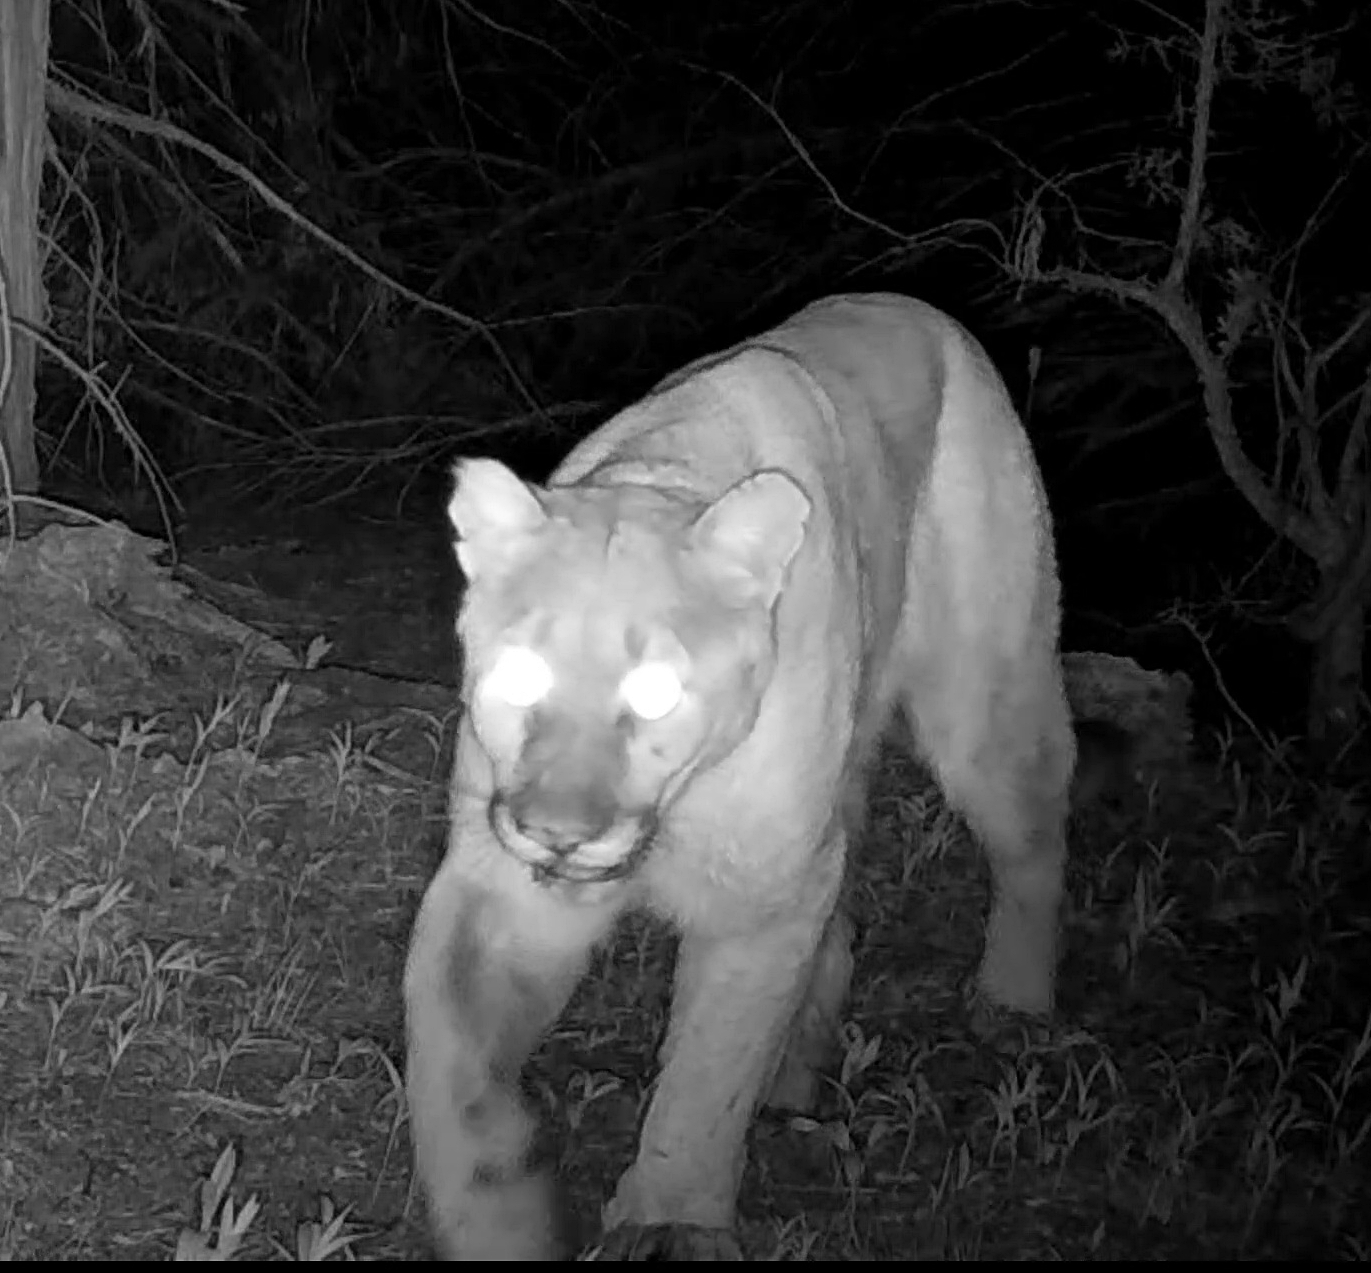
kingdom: Animalia
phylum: Chordata
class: Mammalia
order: Carnivora
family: Felidae
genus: Puma
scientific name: Puma concolor
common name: Puma
